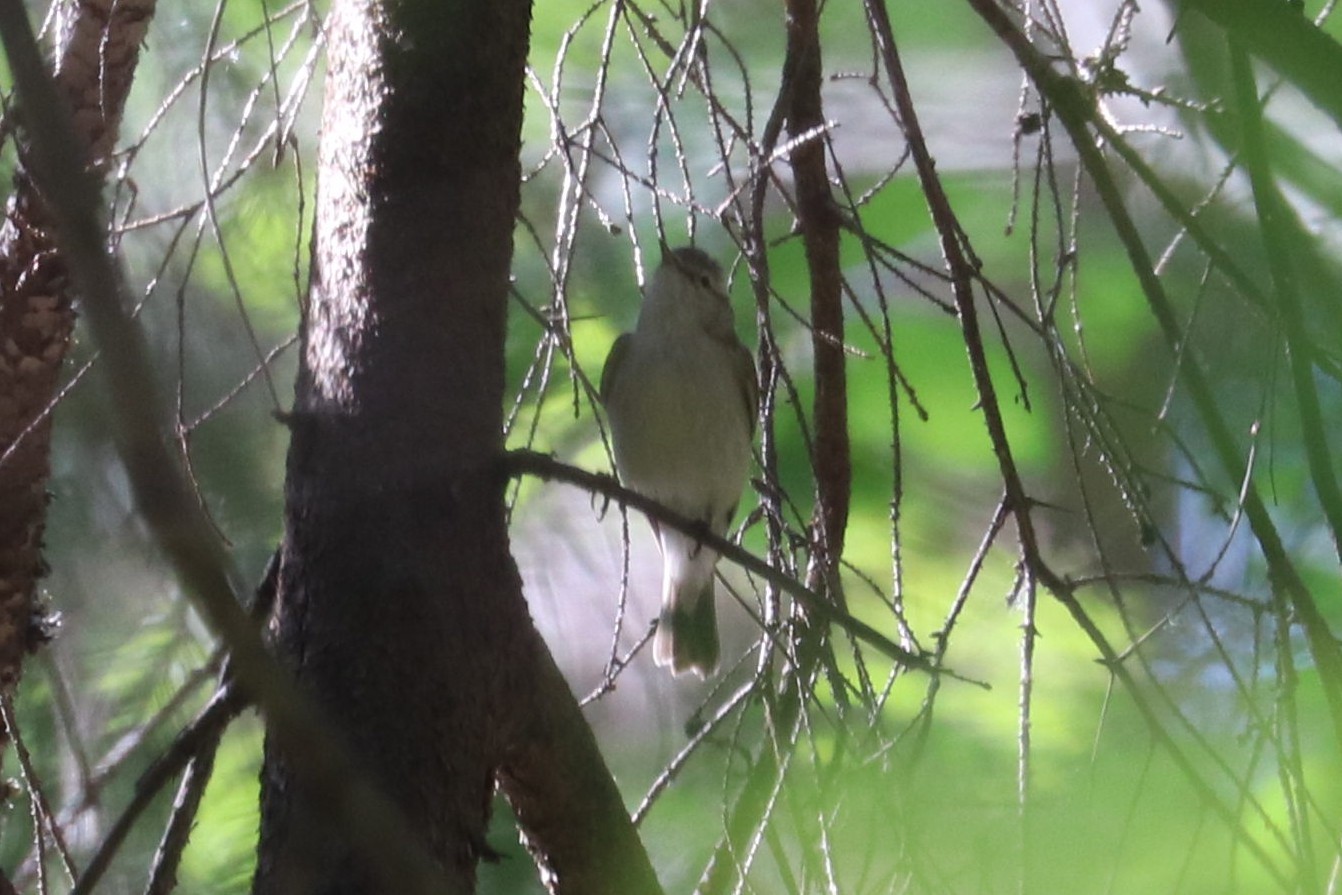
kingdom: Animalia
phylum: Chordata
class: Aves
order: Passeriformes
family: Phylloscopidae
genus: Phylloscopus
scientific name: Phylloscopus trochiloides
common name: Greenish warbler
